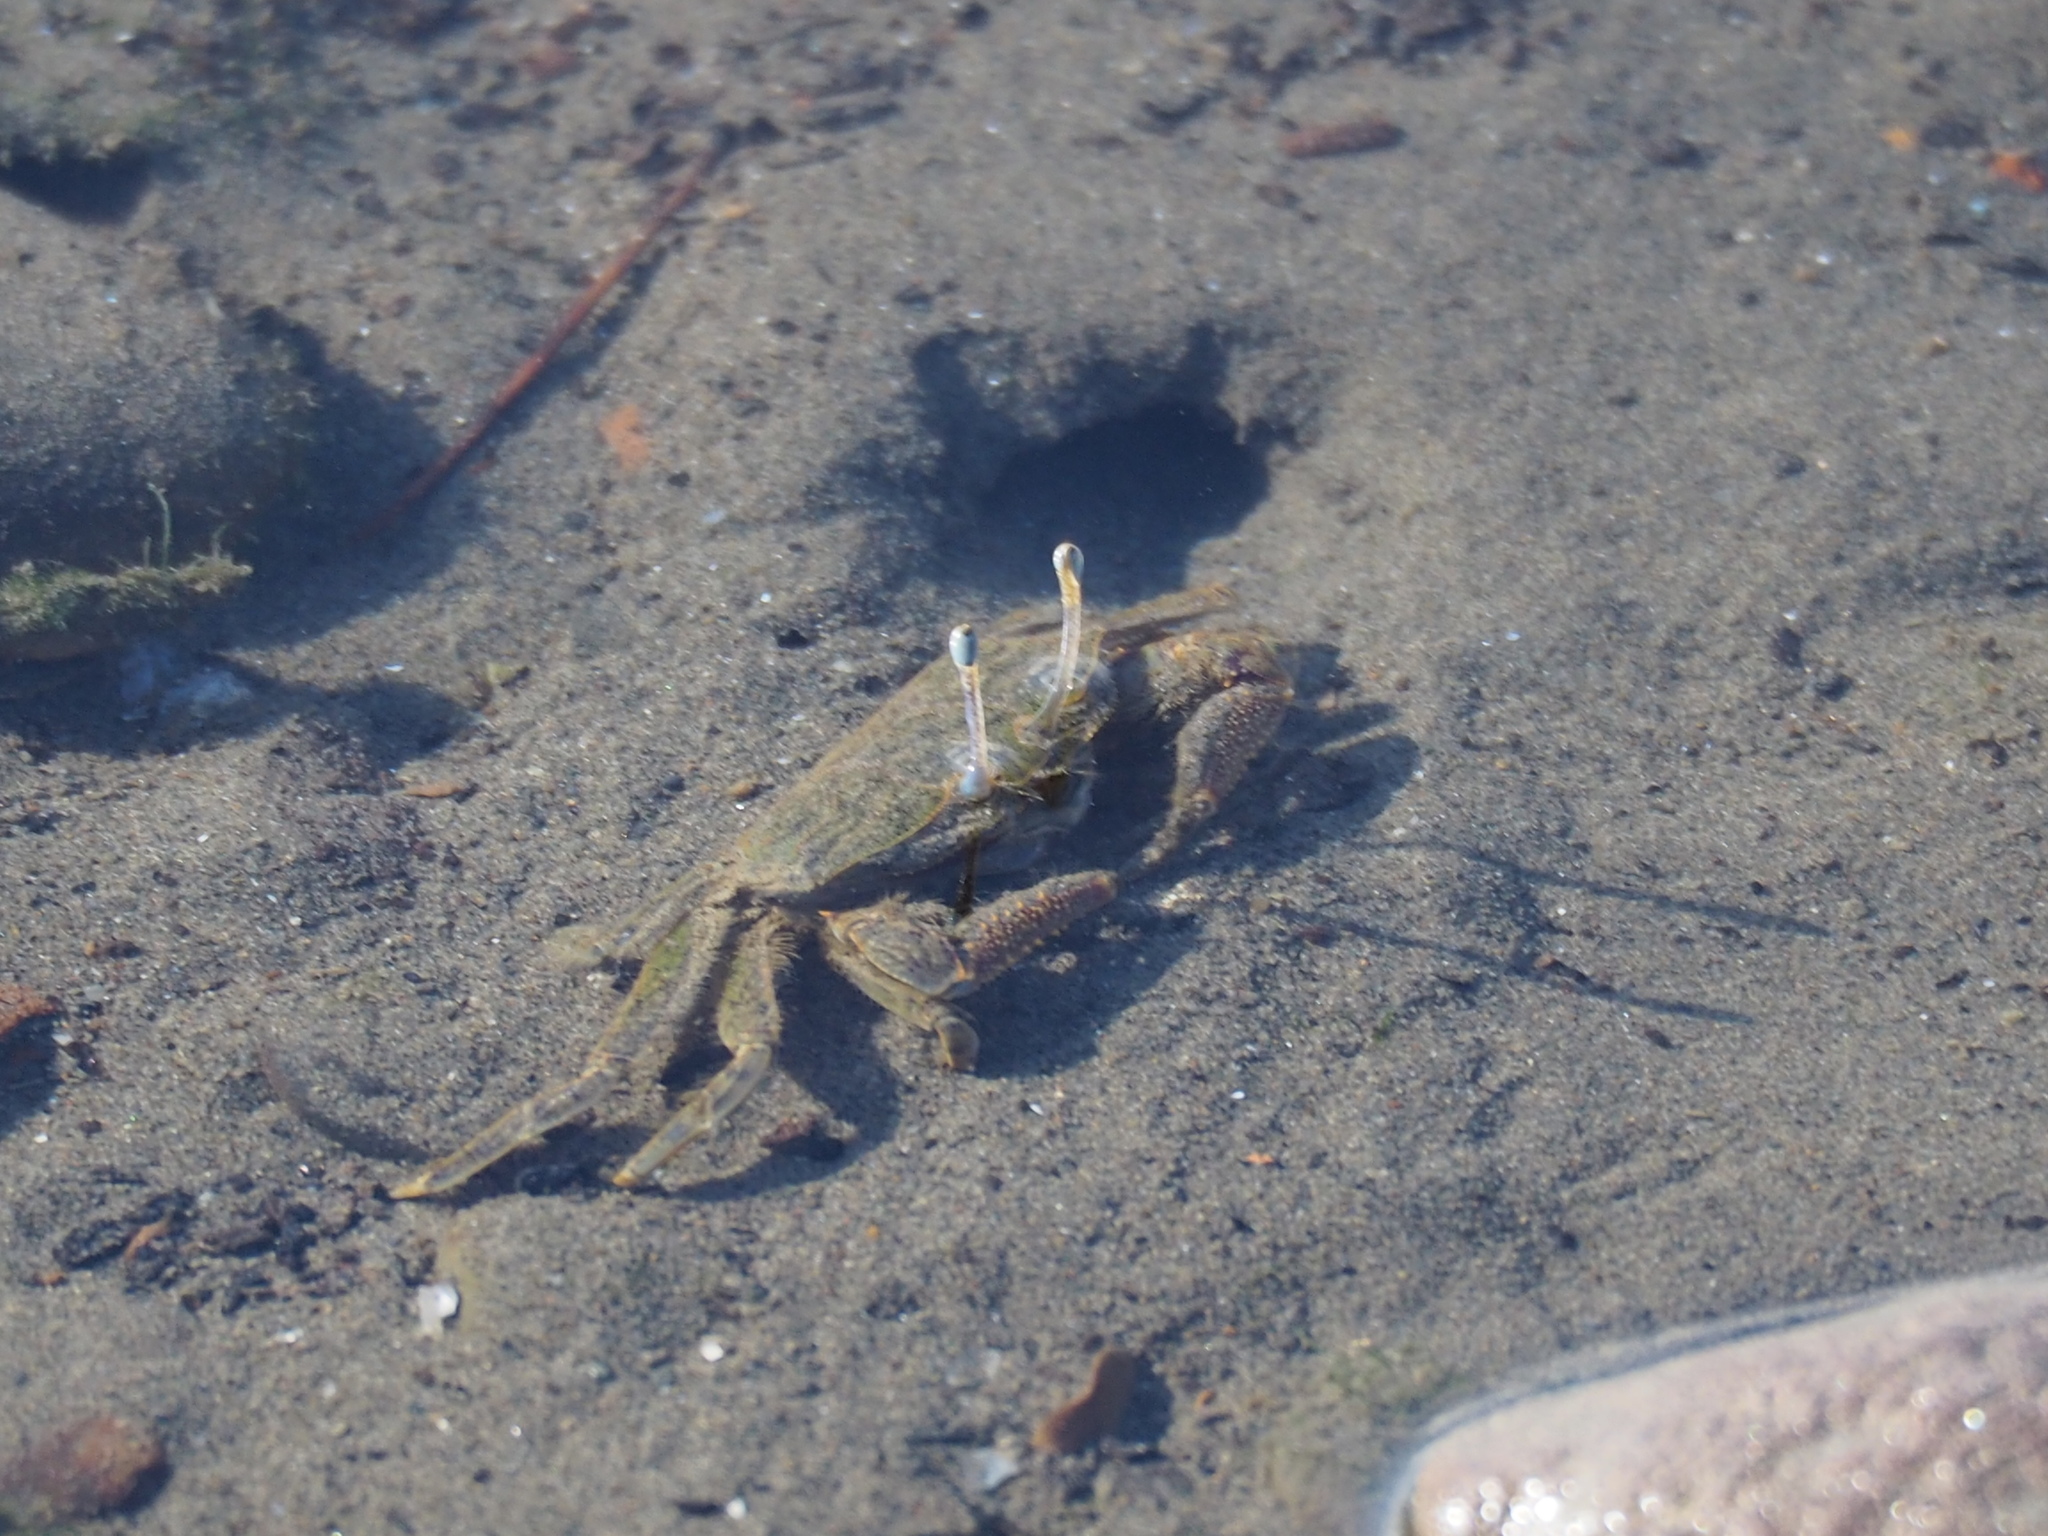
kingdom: Animalia
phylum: Arthropoda
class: Malacostraca
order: Decapoda
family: Macrophthalmidae
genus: Macrophthalmus
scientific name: Macrophthalmus abbreviatus
